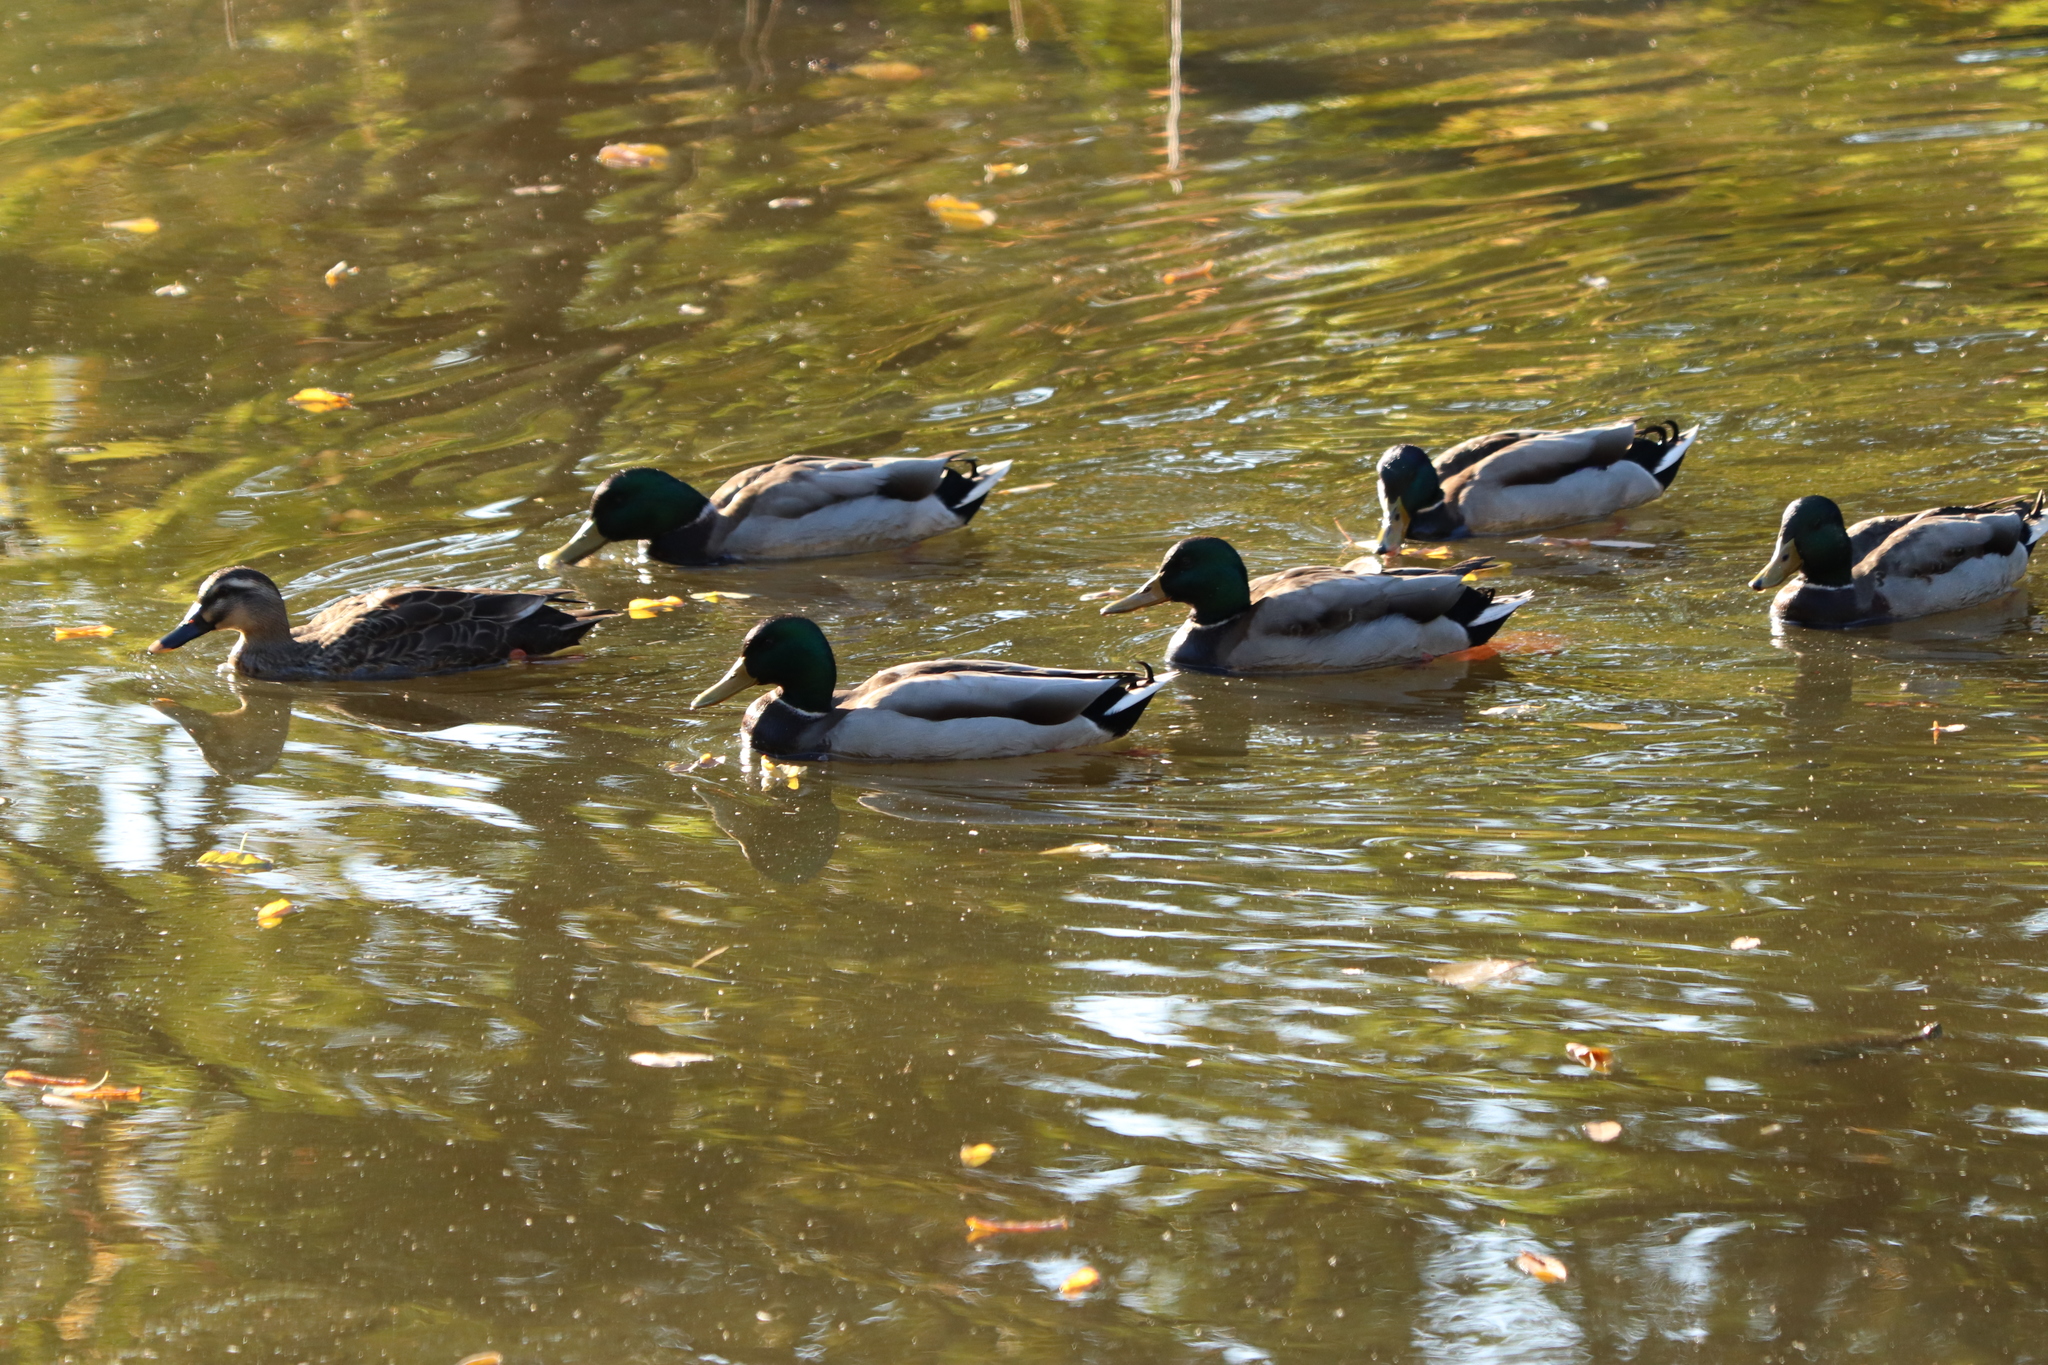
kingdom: Animalia
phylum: Chordata
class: Aves
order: Anseriformes
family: Anatidae
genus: Anas
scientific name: Anas platyrhynchos
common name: Mallard
